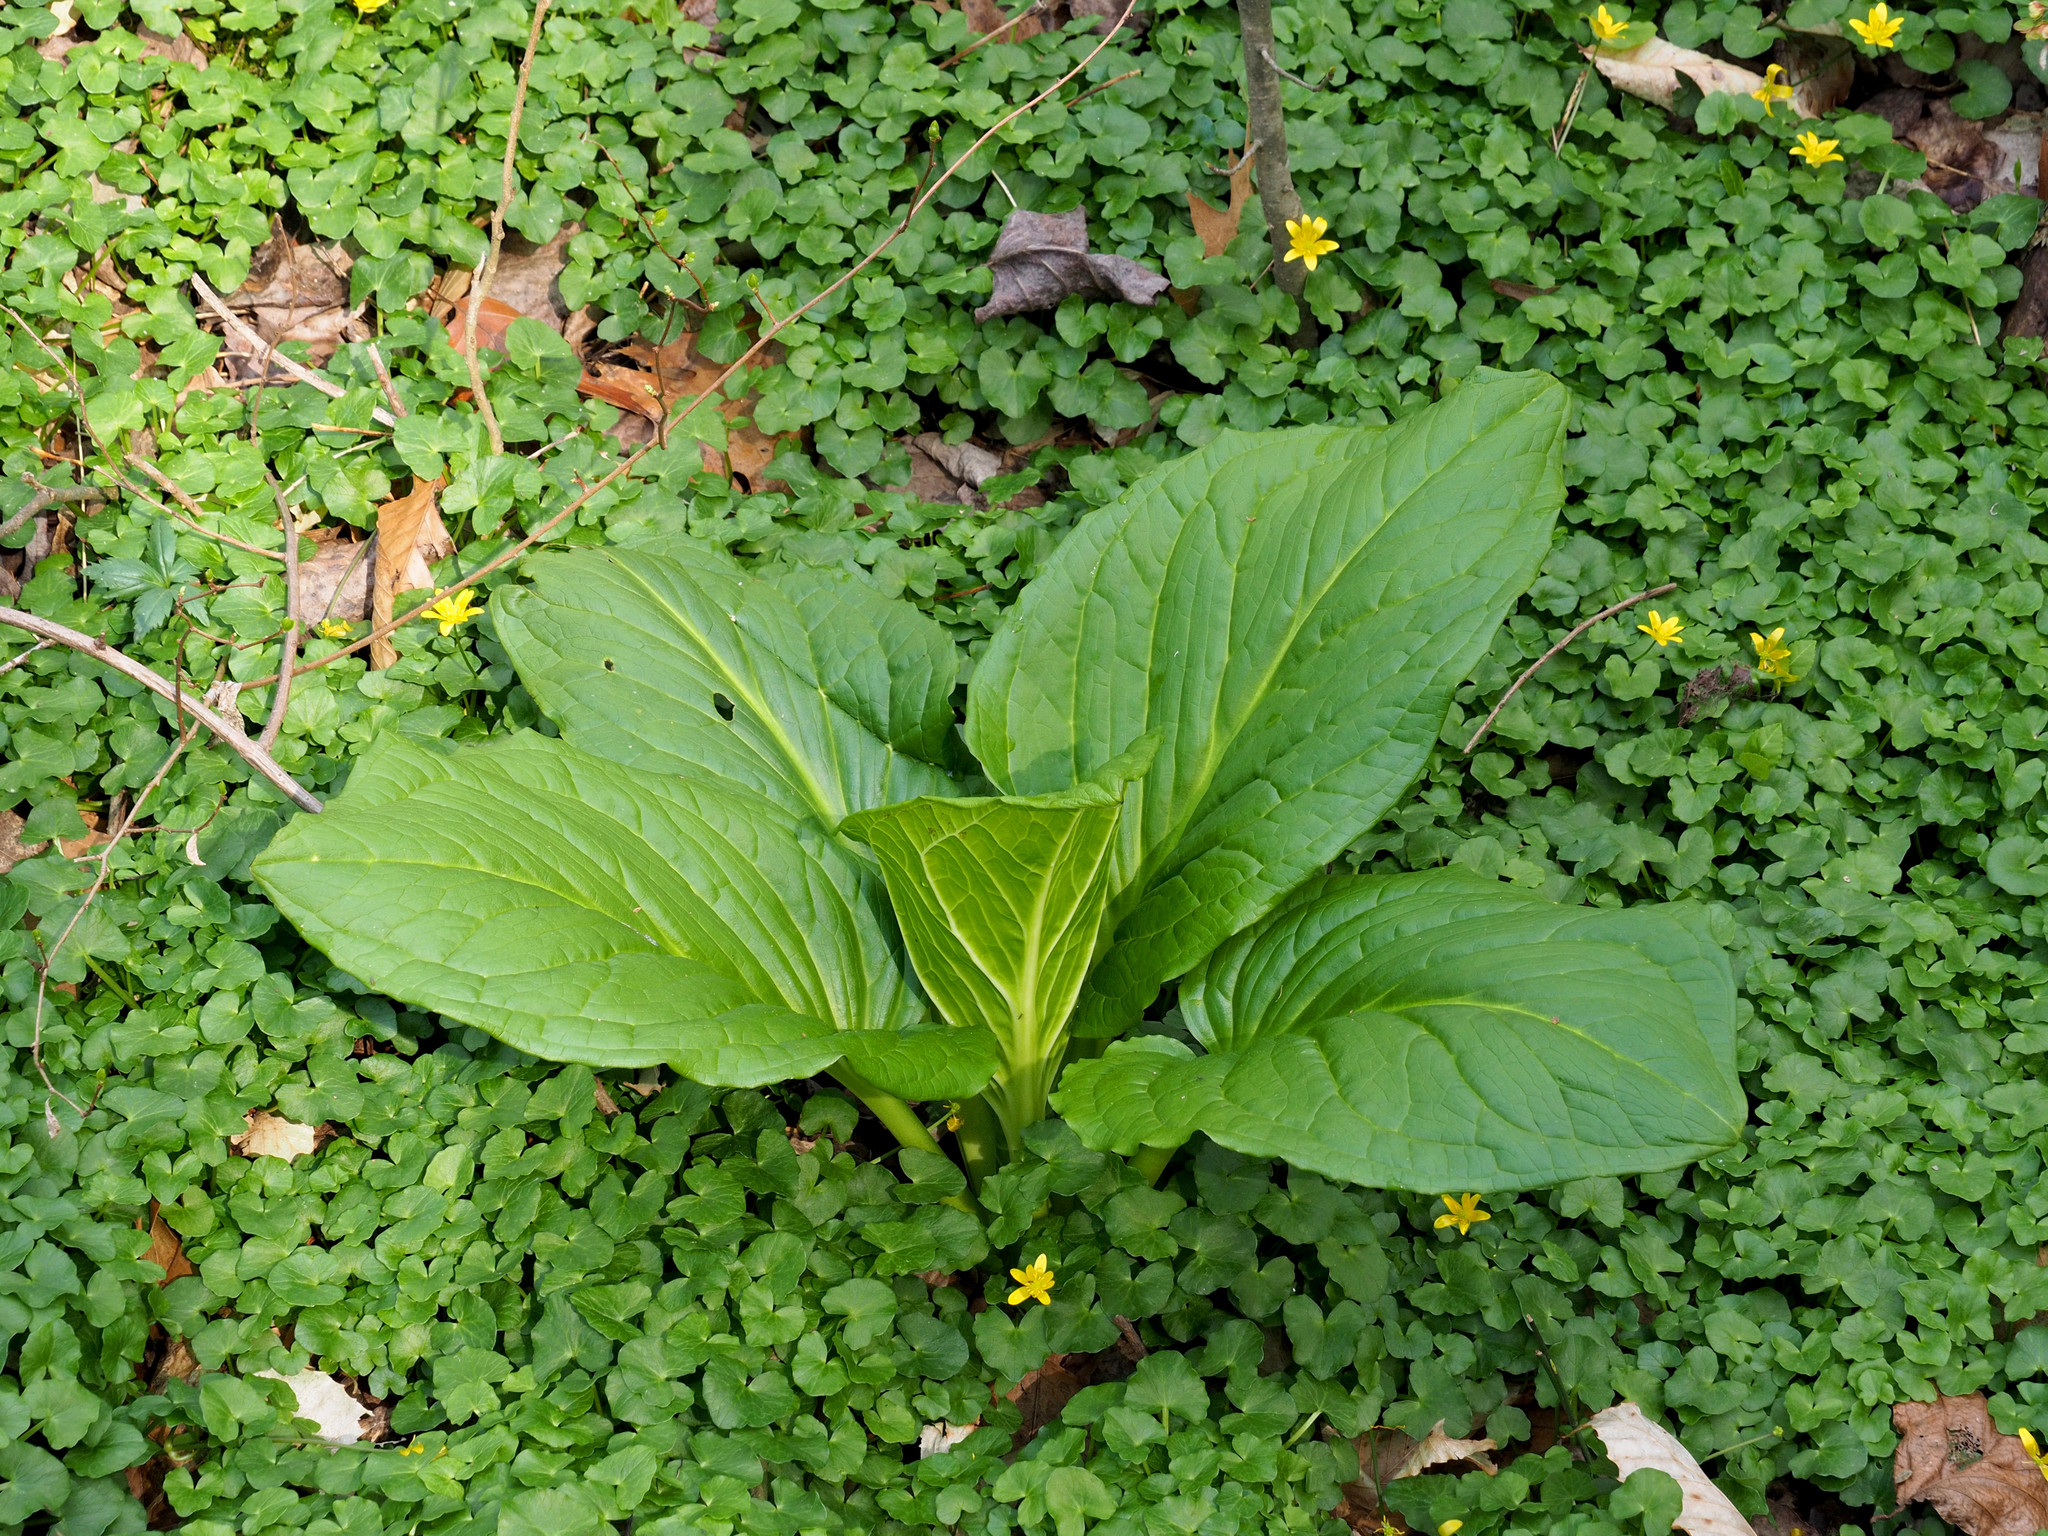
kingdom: Plantae
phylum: Tracheophyta
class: Liliopsida
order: Alismatales
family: Araceae
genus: Symplocarpus
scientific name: Symplocarpus foetidus
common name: Eastern skunk cabbage
